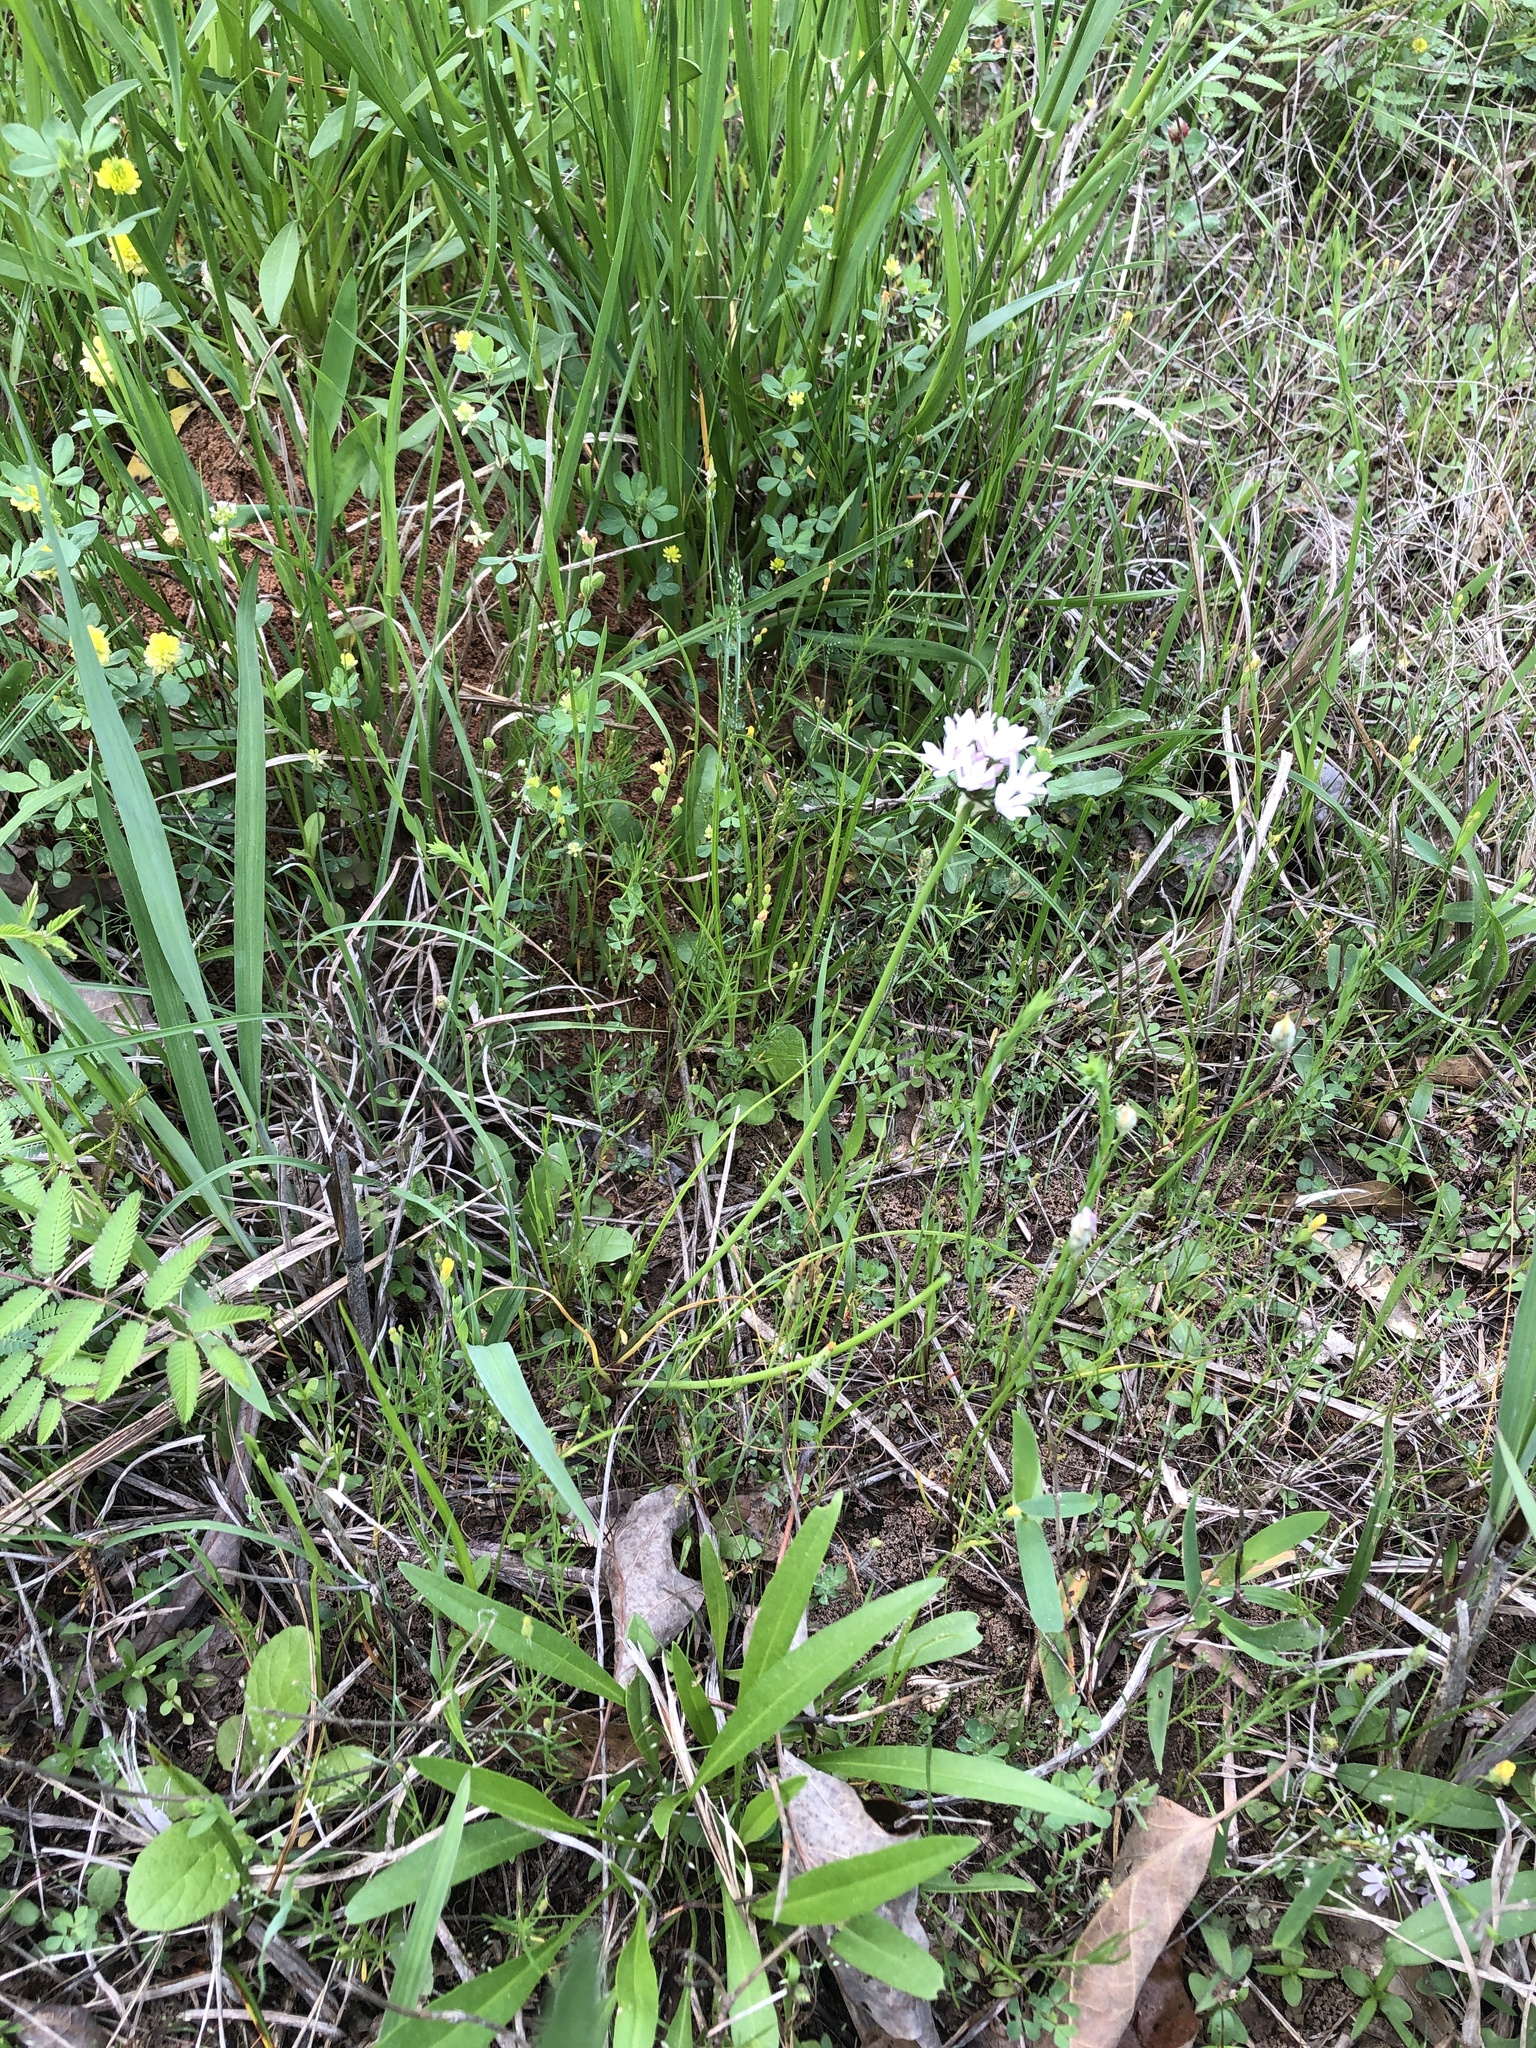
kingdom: Plantae
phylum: Tracheophyta
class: Liliopsida
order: Asparagales
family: Amaryllidaceae
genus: Allium
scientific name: Allium drummondii
